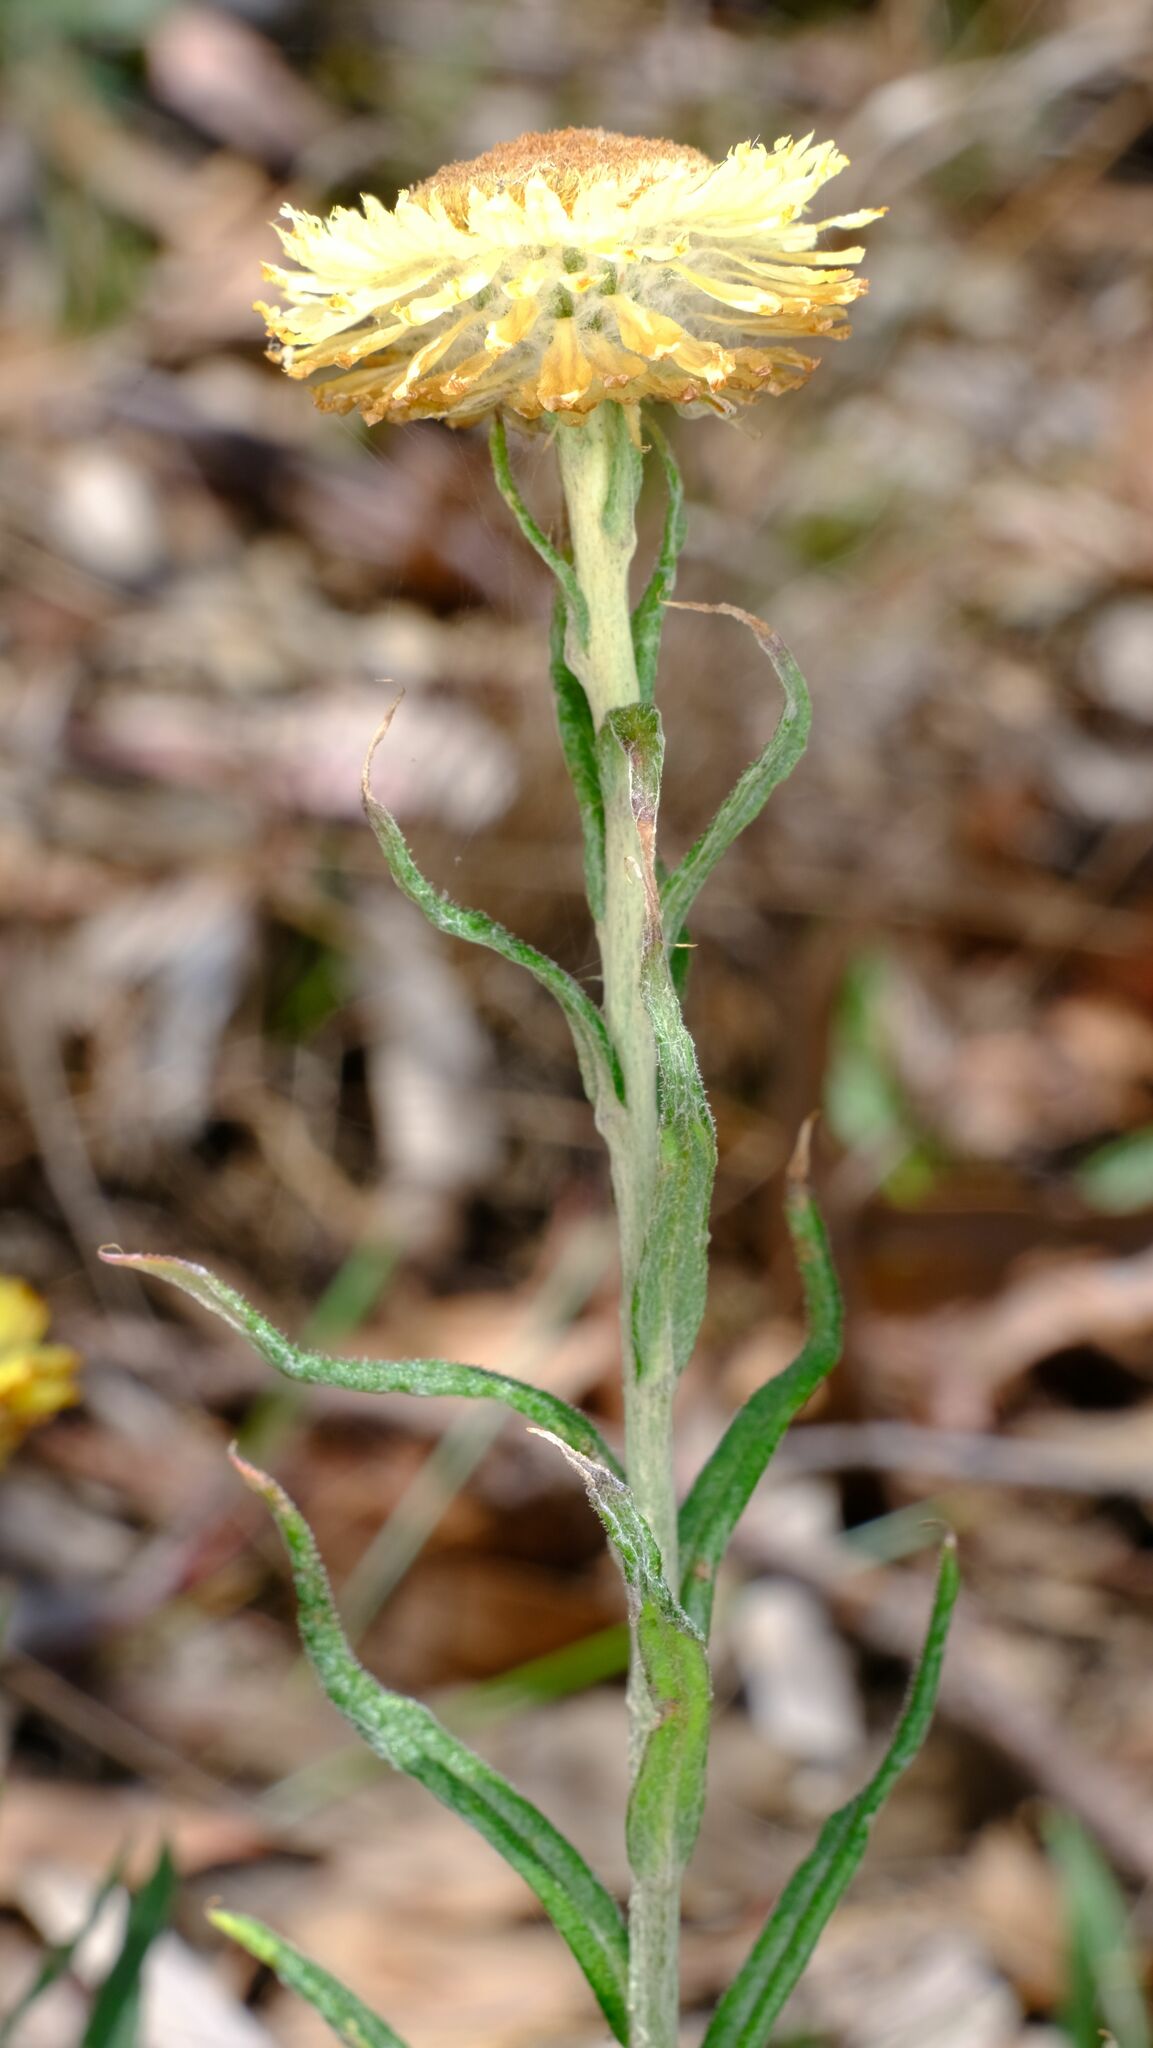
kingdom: Plantae
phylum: Tracheophyta
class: Magnoliopsida
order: Asterales
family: Asteraceae
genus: Coronidium
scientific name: Coronidium scorpioides
